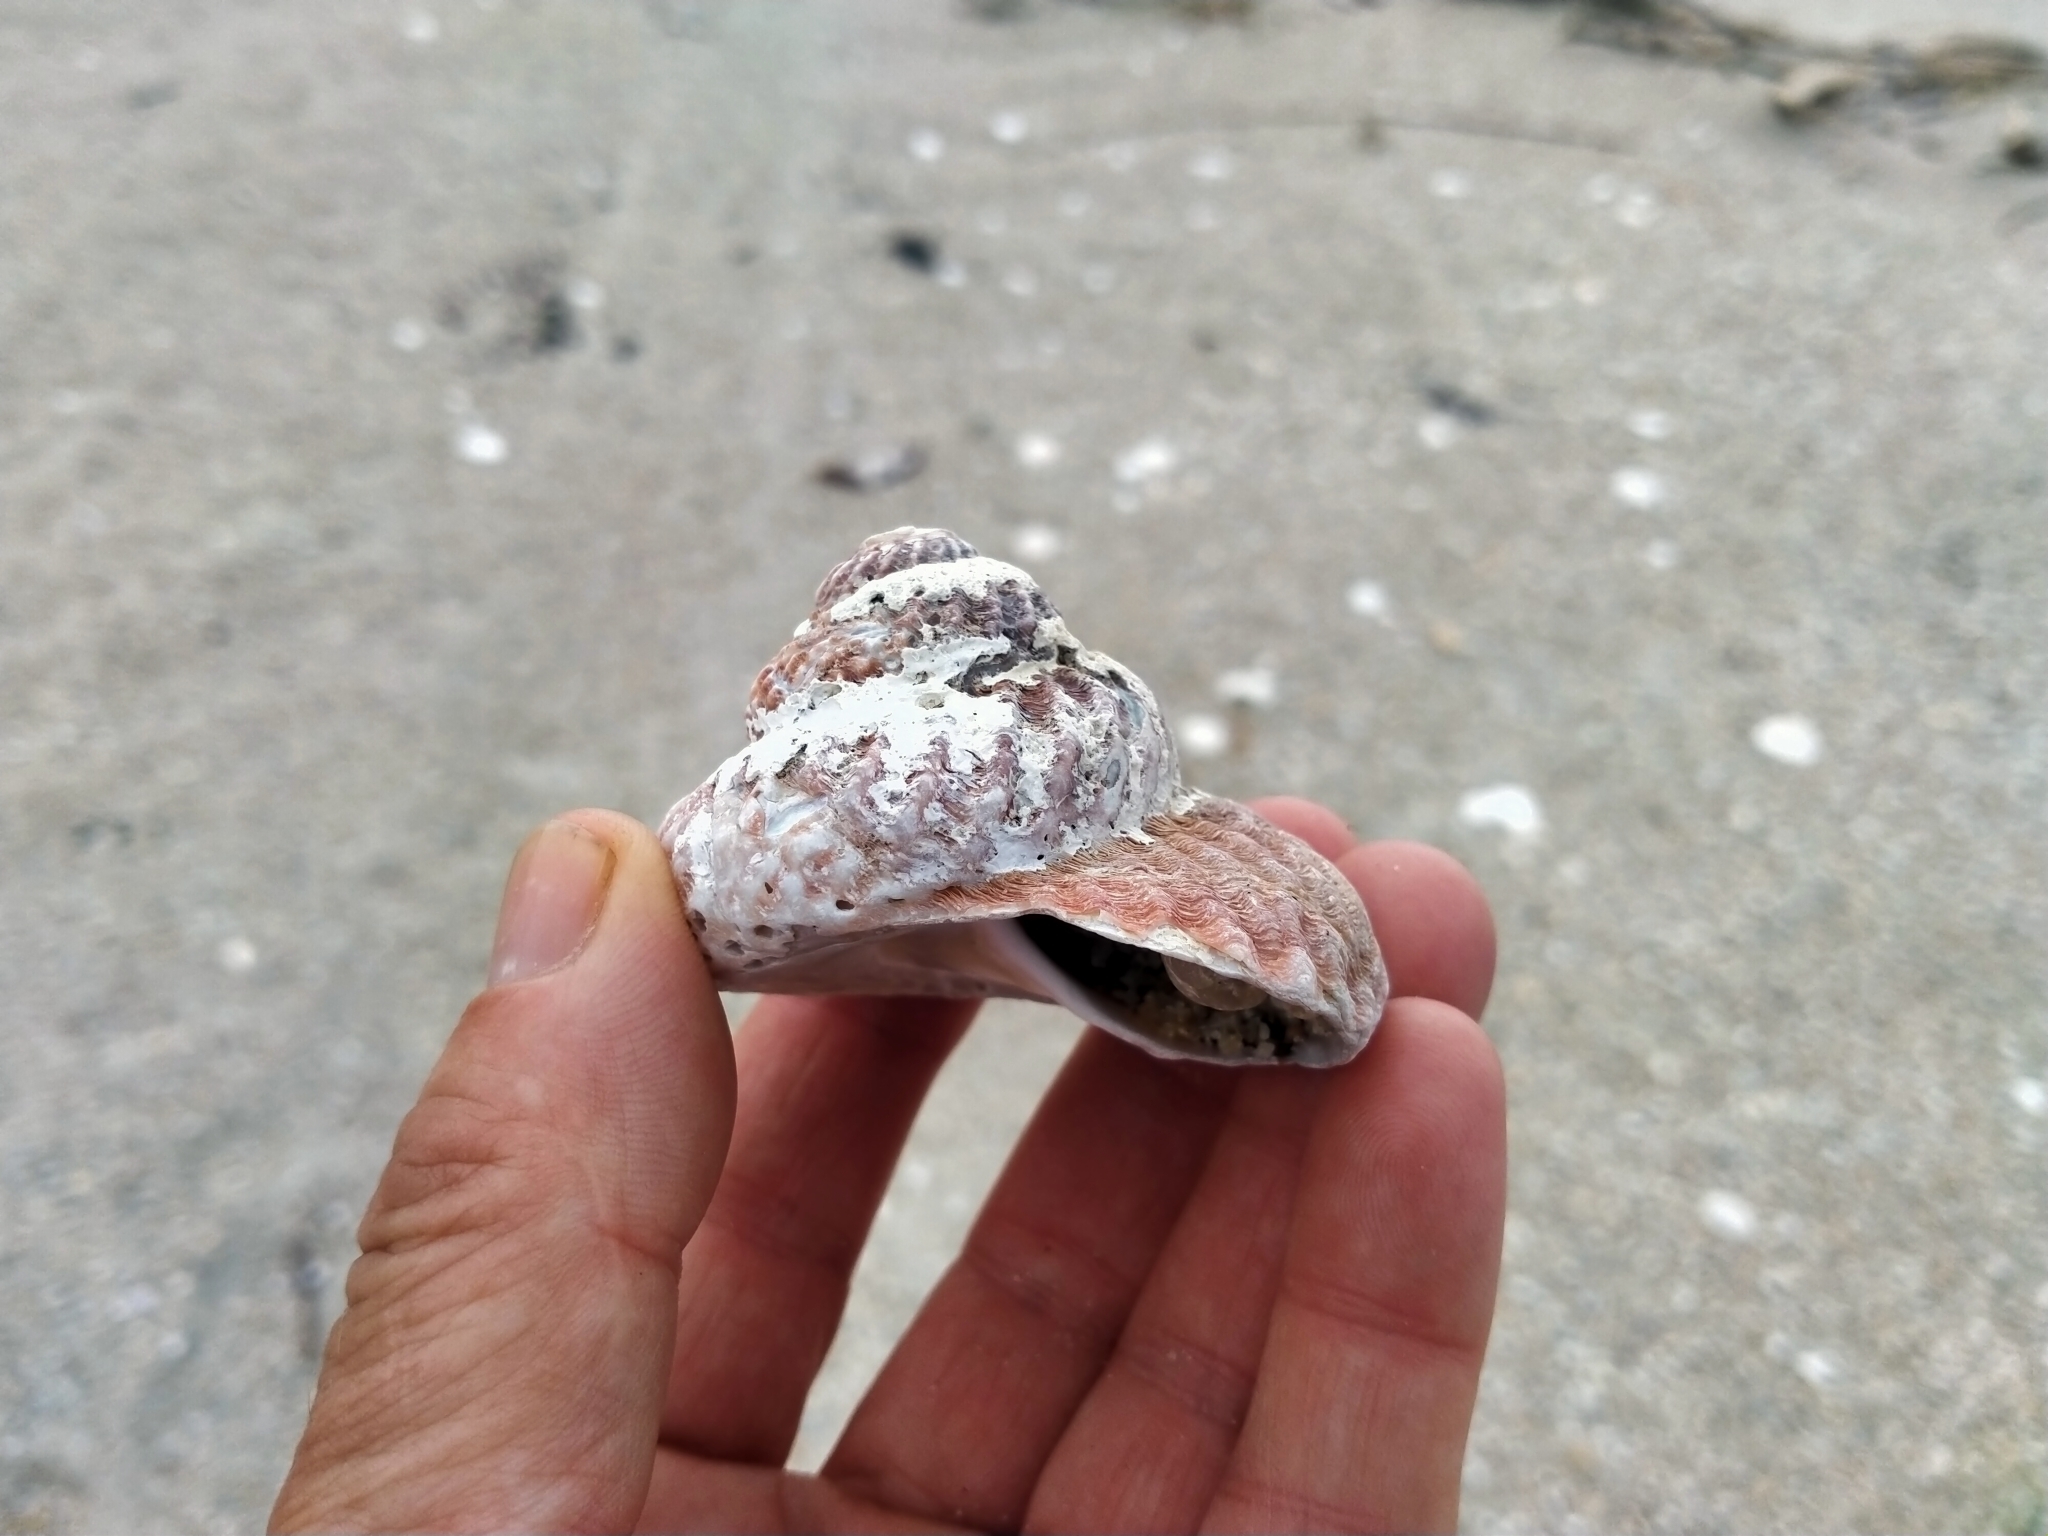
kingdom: Animalia
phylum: Mollusca
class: Gastropoda
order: Trochida
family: Turbinidae
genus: Cookia
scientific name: Cookia sulcata
